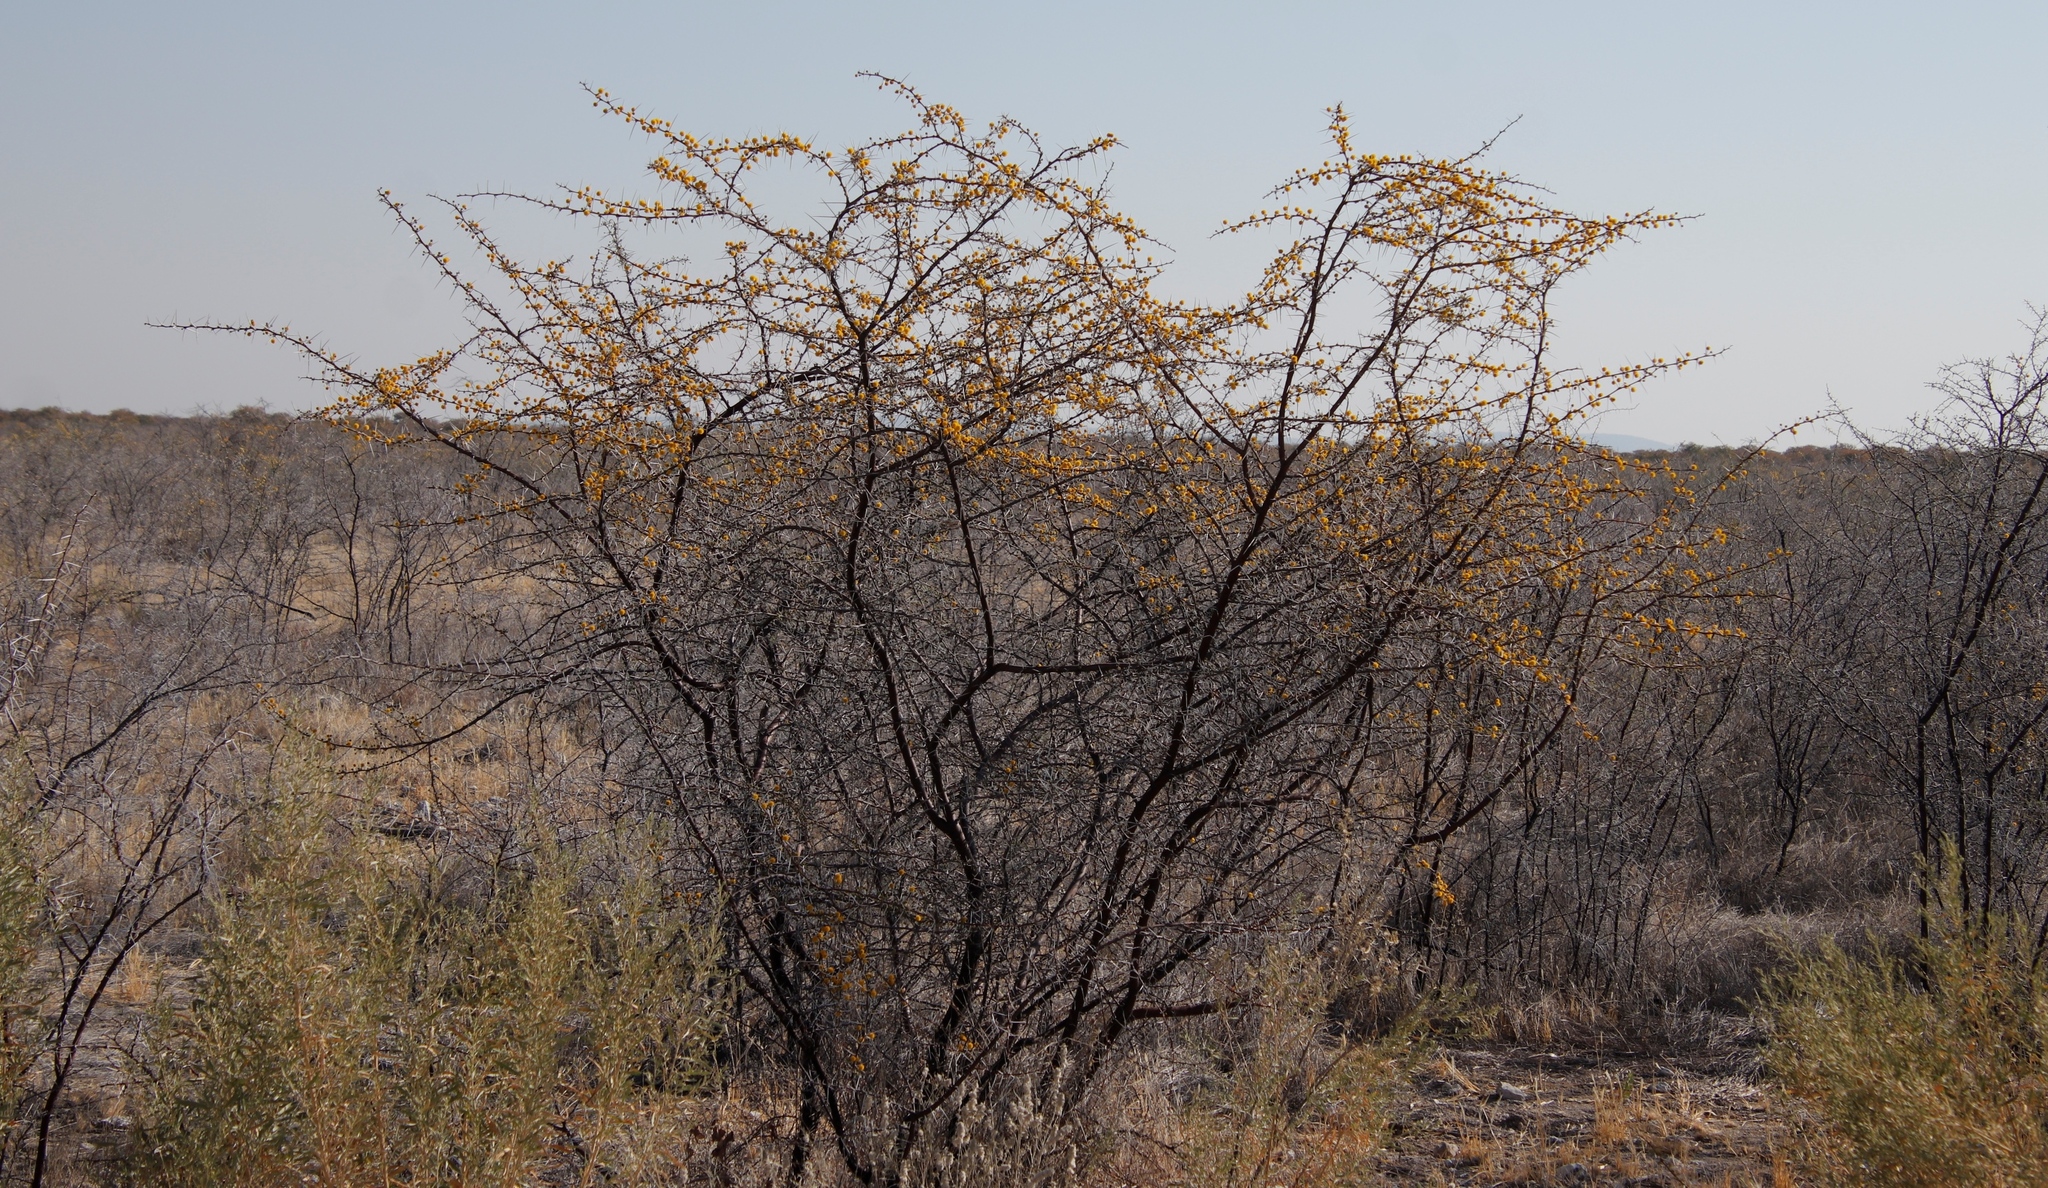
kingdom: Plantae
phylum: Tracheophyta
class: Magnoliopsida
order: Fabales
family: Fabaceae
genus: Vachellia
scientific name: Vachellia nebrownii
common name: Water acacia
